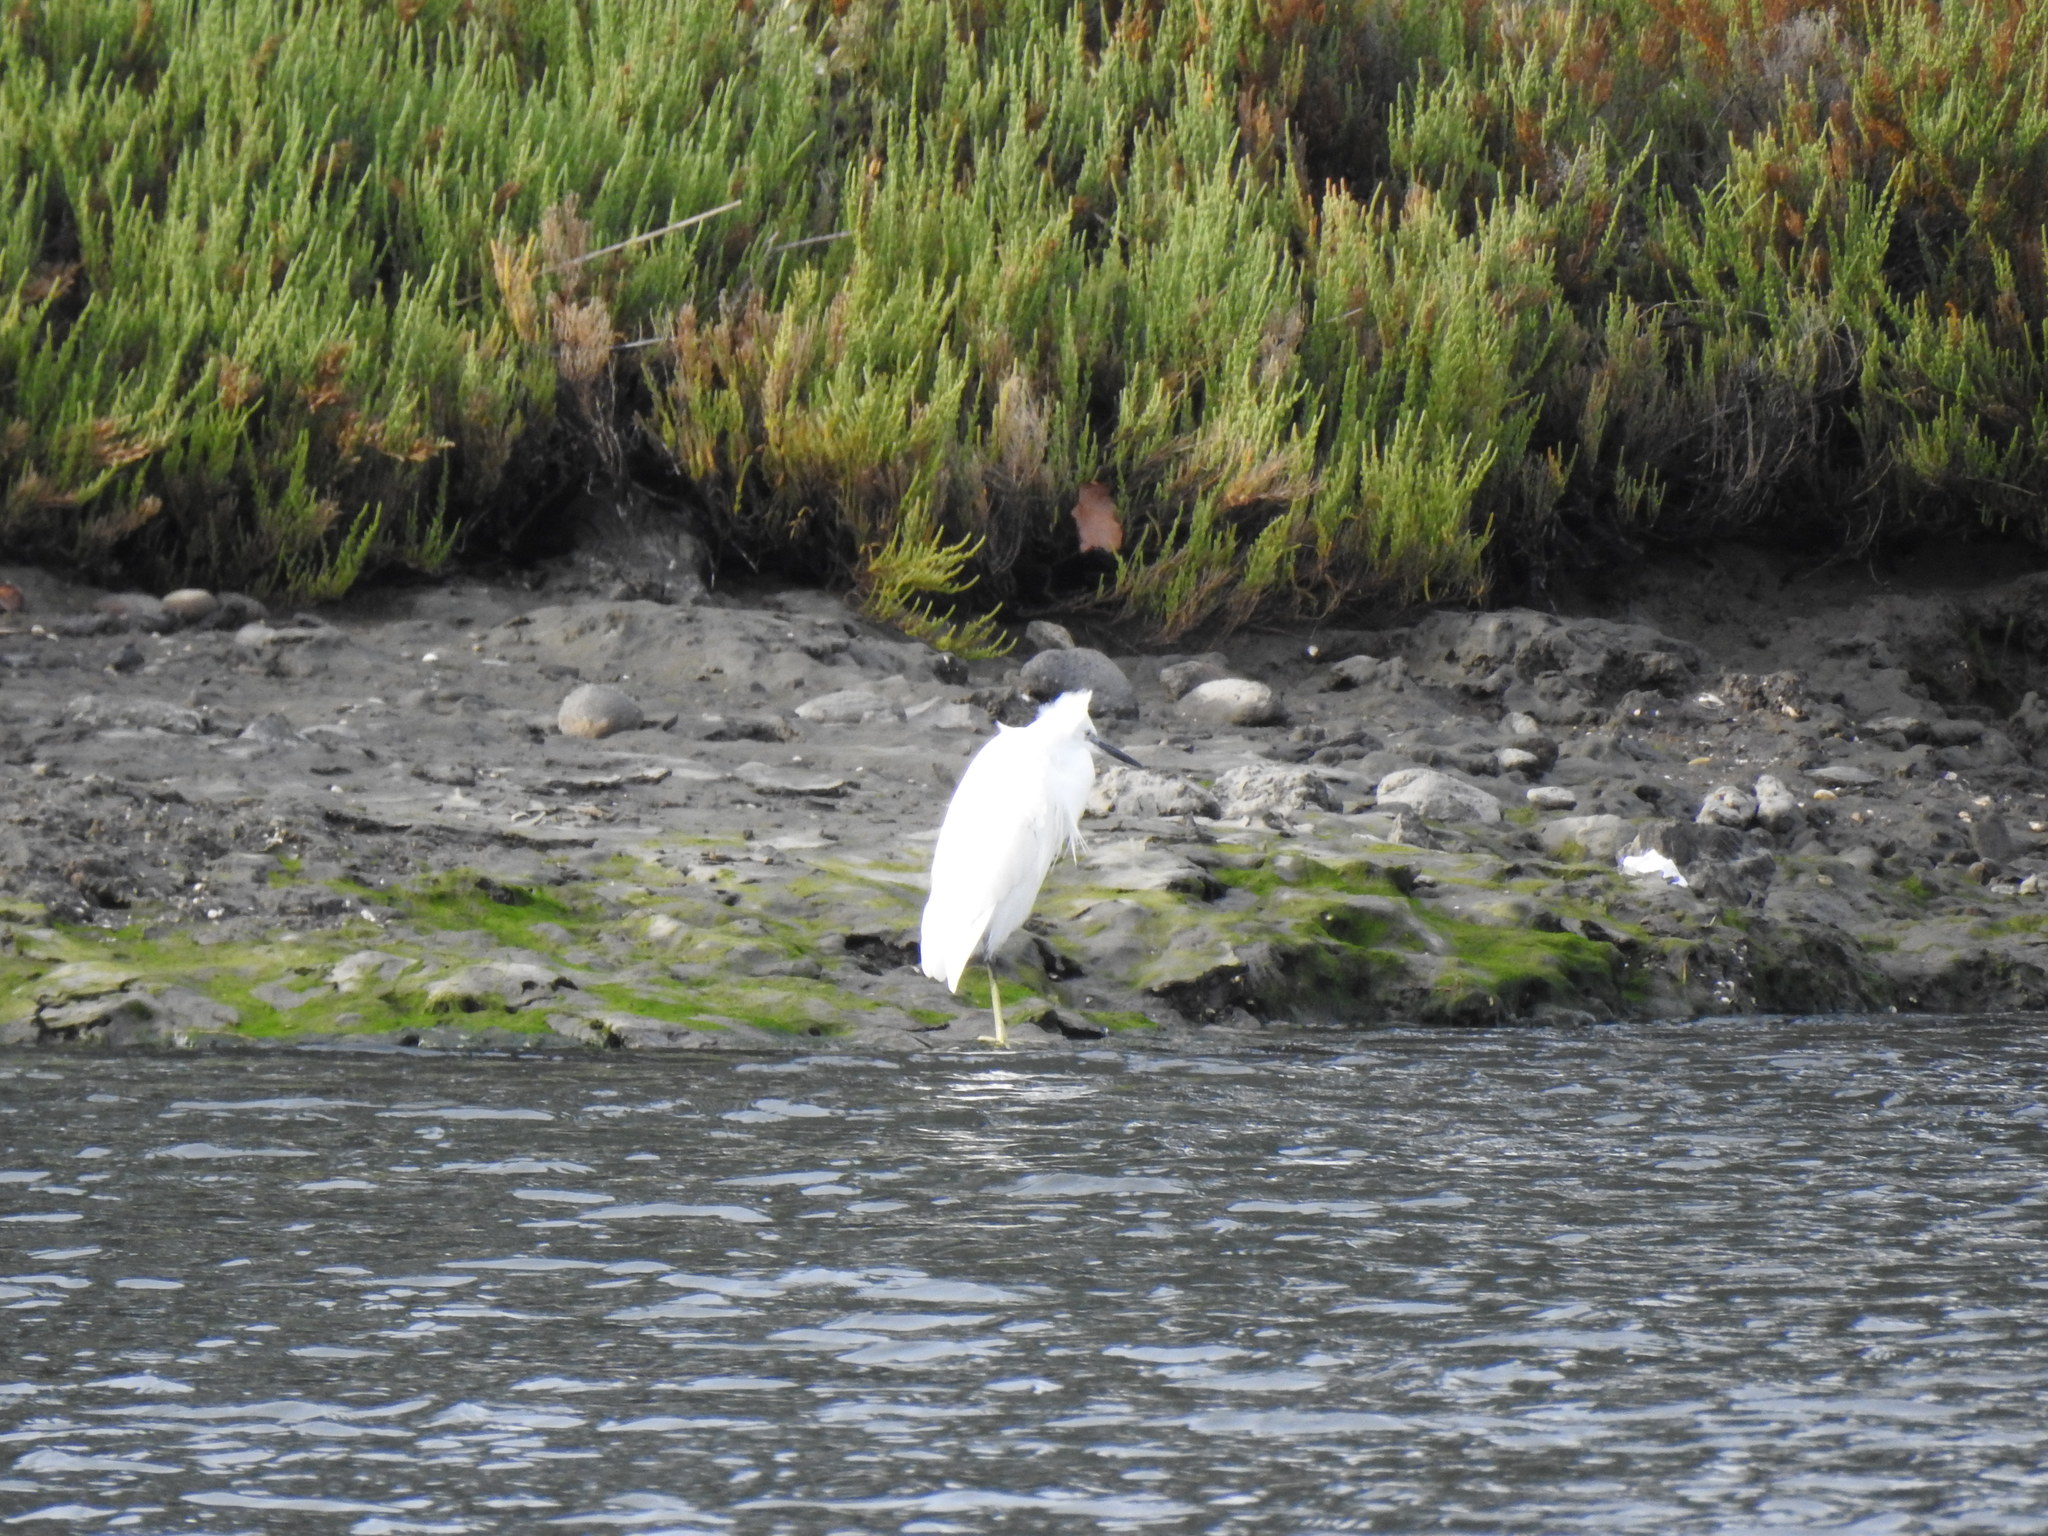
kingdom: Animalia
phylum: Chordata
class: Aves
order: Pelecaniformes
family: Ardeidae
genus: Egretta
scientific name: Egretta garzetta
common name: Little egret
